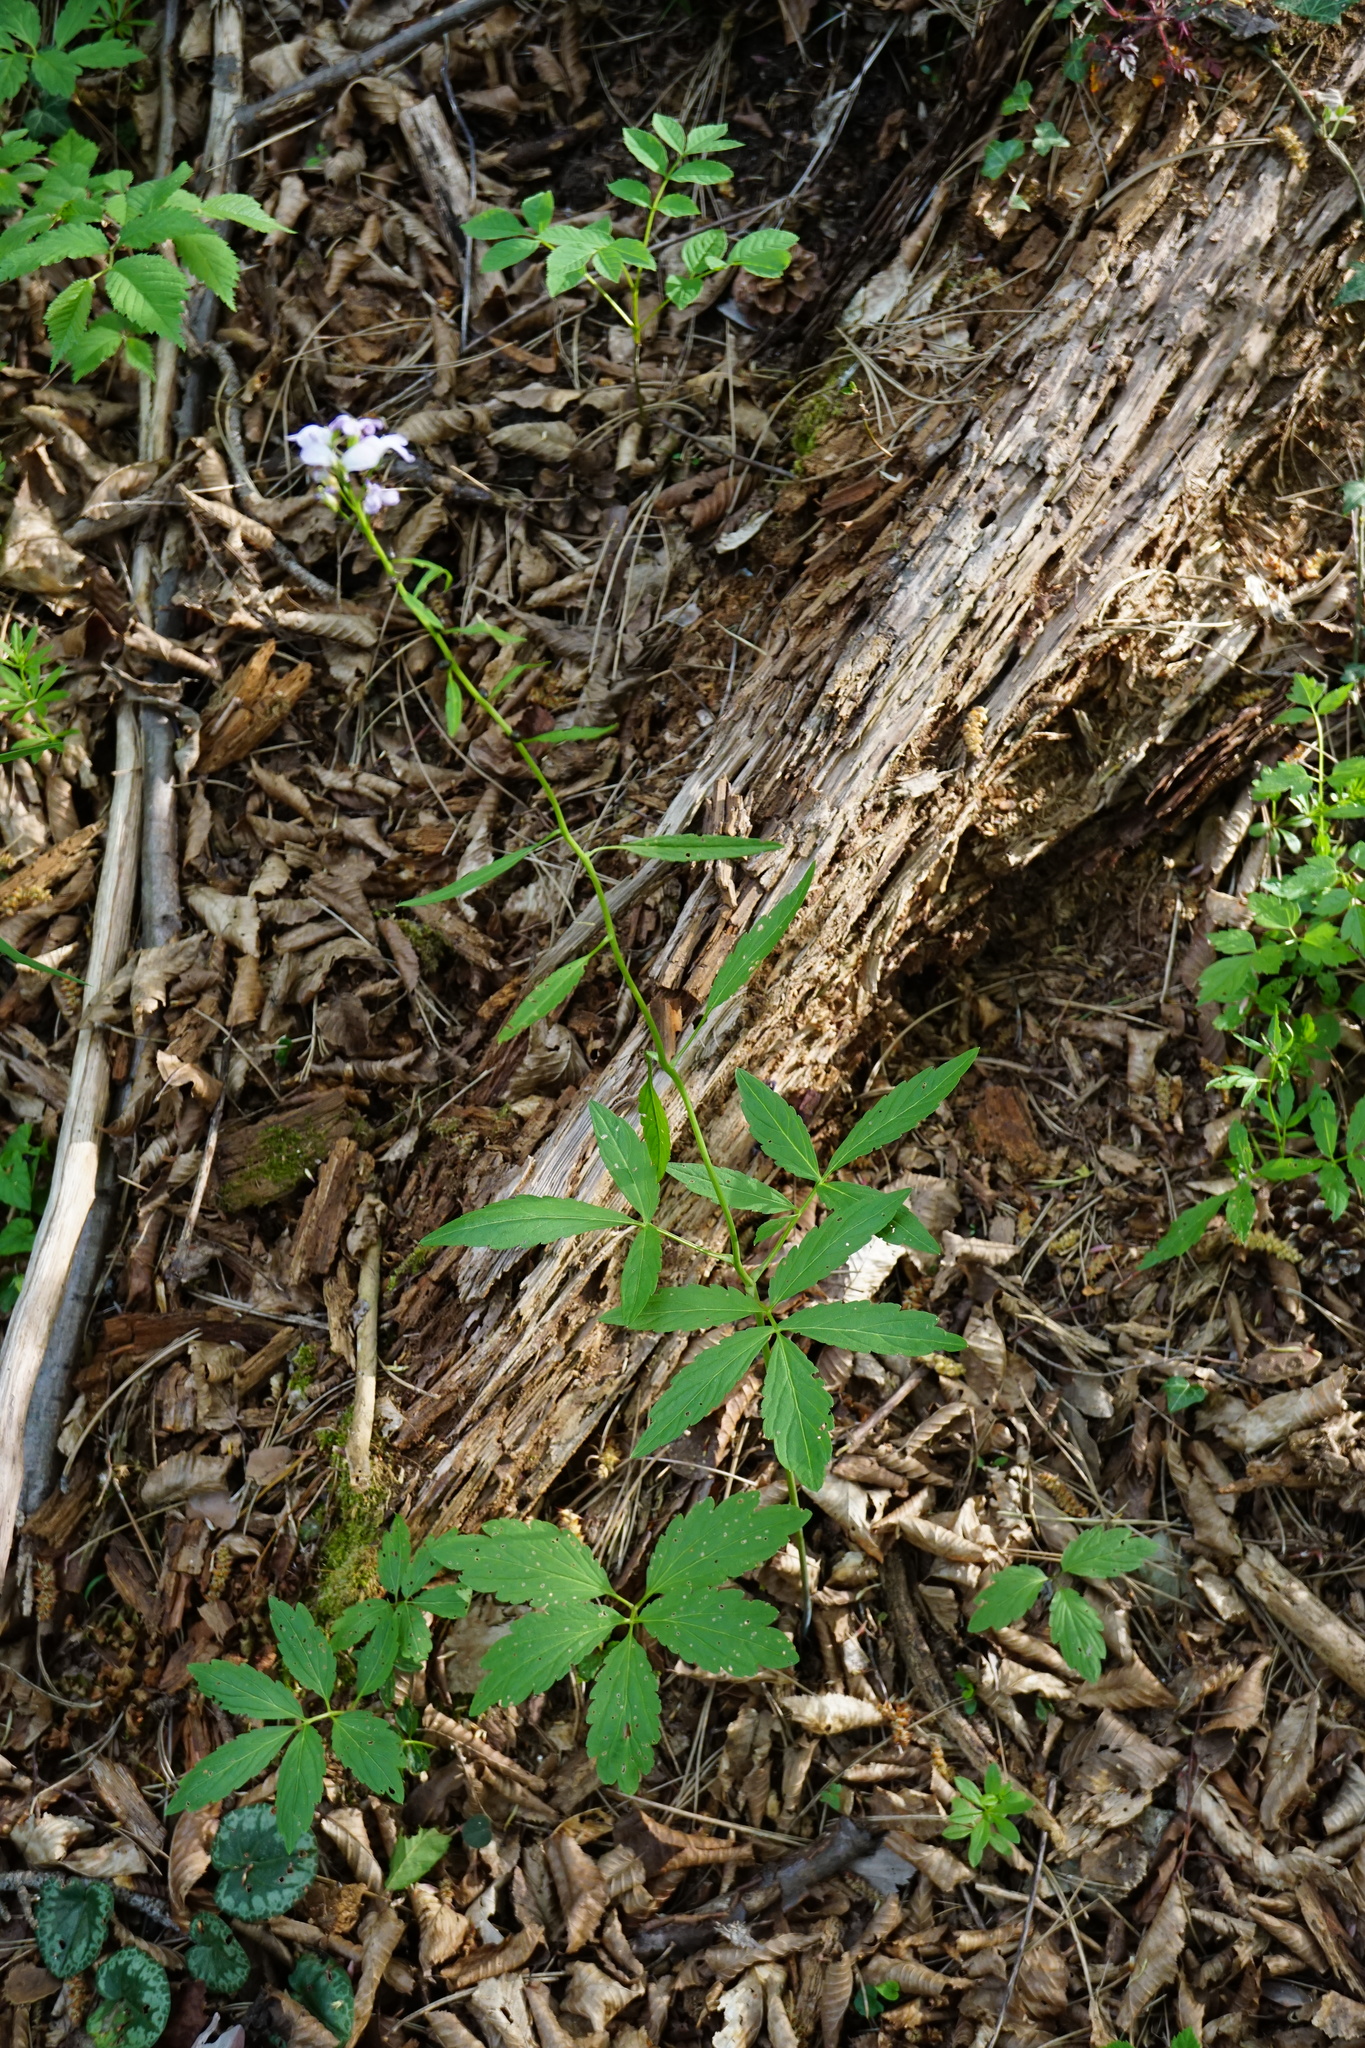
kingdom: Plantae
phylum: Tracheophyta
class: Magnoliopsida
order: Brassicales
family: Brassicaceae
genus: Cardamine
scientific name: Cardamine bulbifera
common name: Coralroot bittercress
